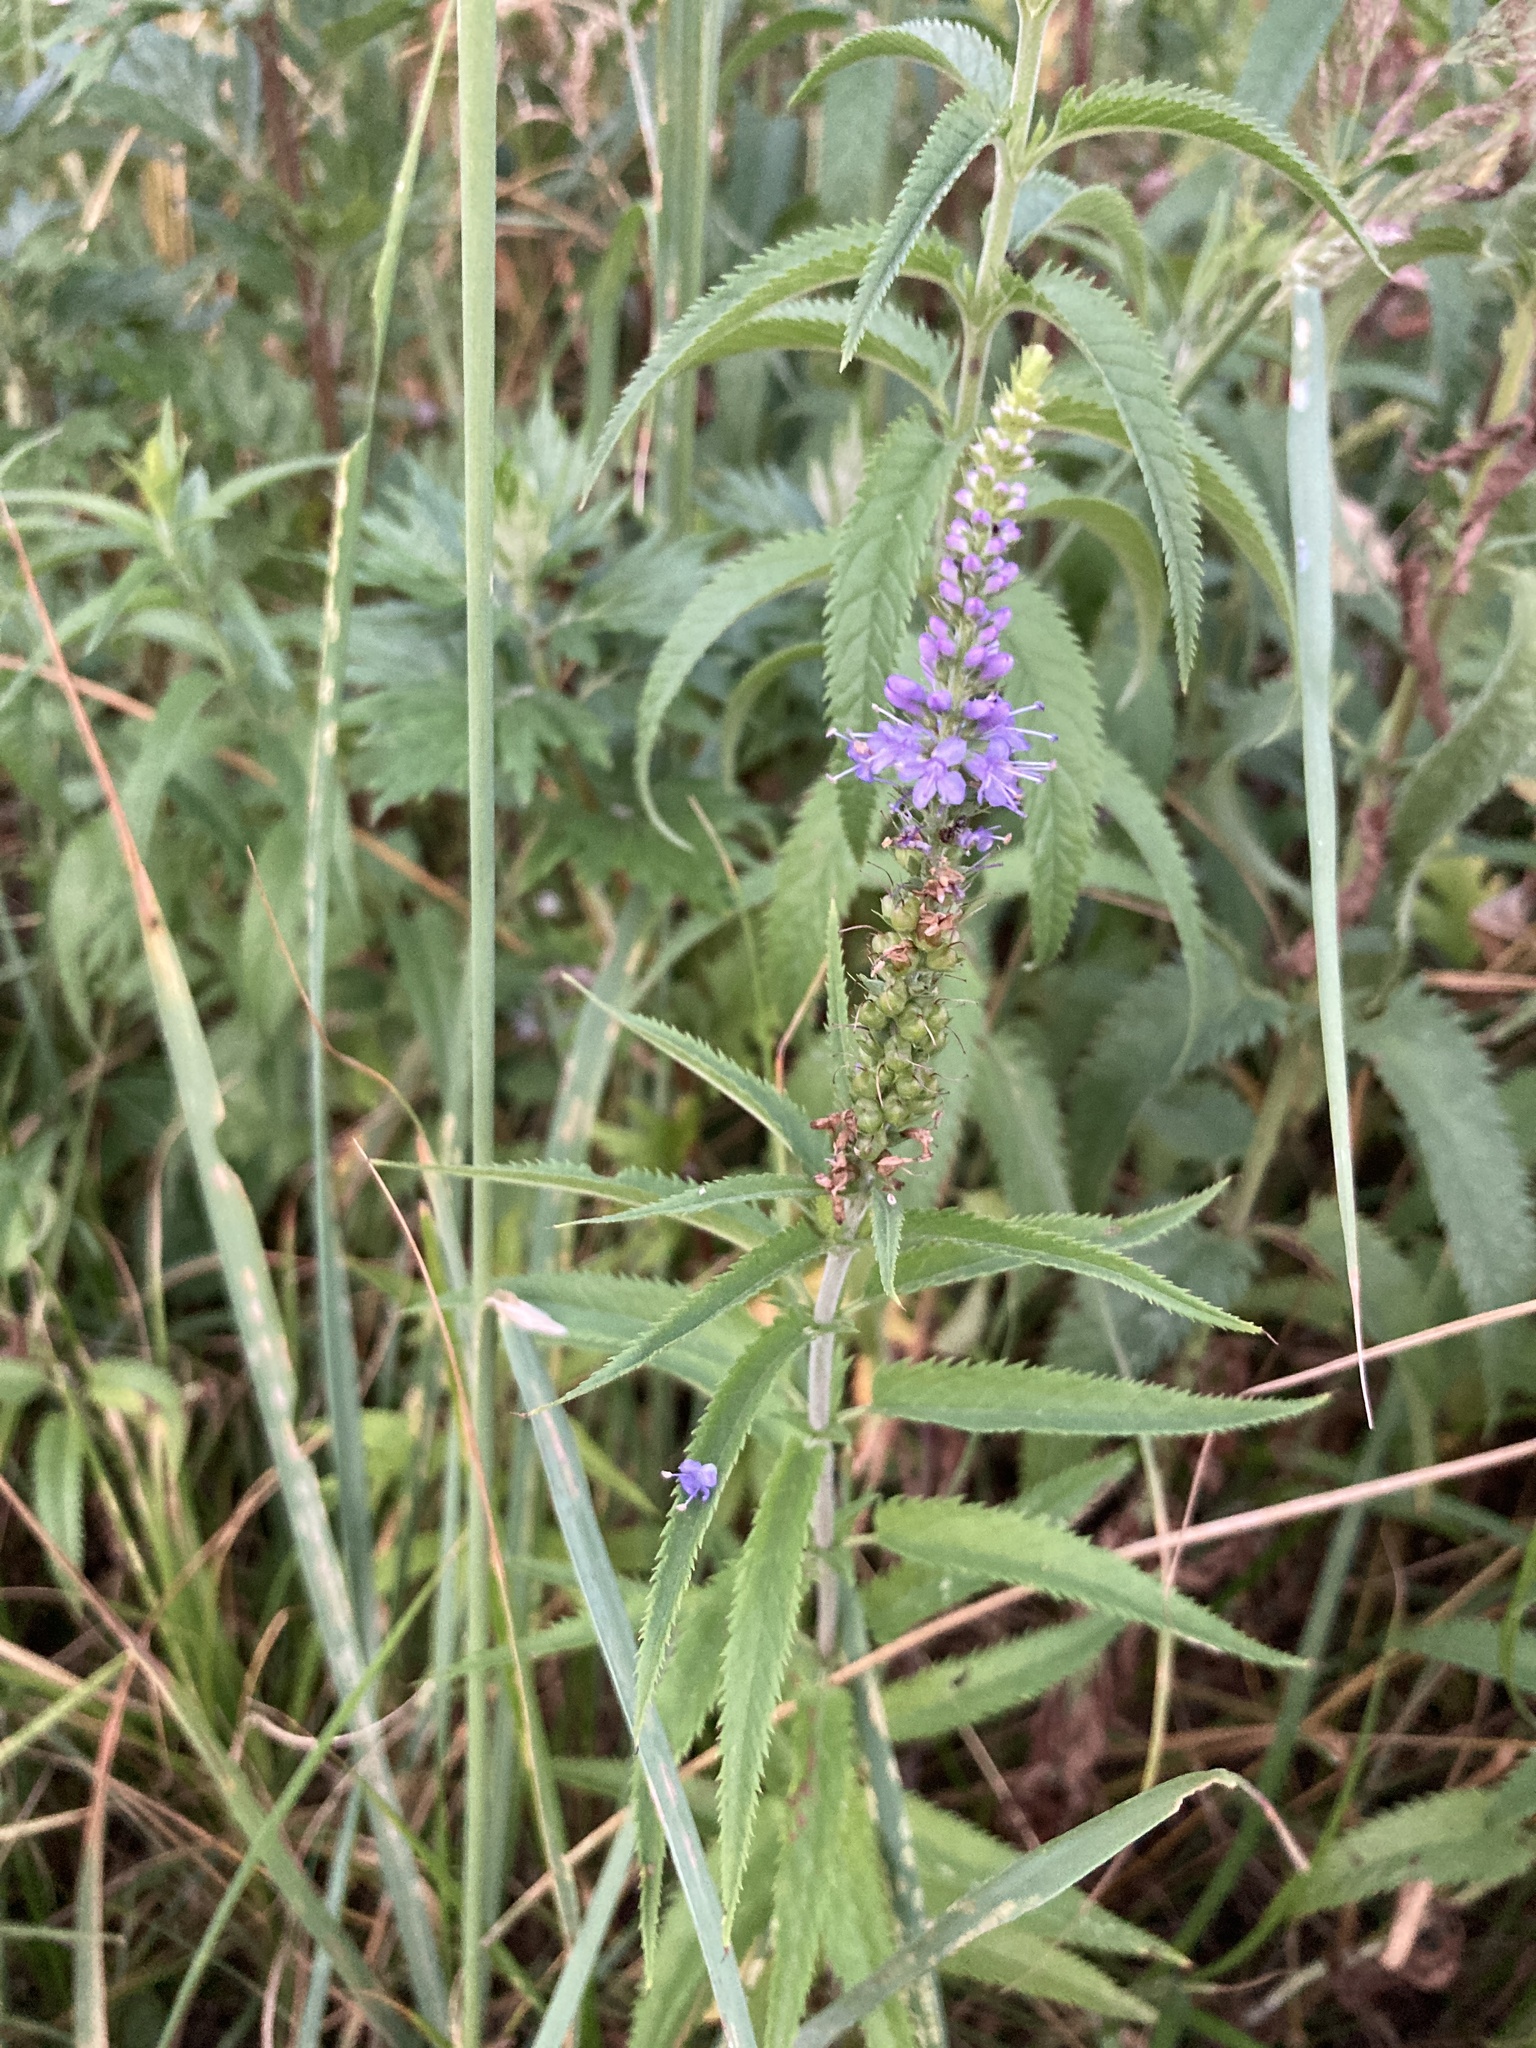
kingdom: Plantae
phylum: Tracheophyta
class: Magnoliopsida
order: Lamiales
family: Plantaginaceae
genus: Veronica
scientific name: Veronica longifolia
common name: Garden speedwell
